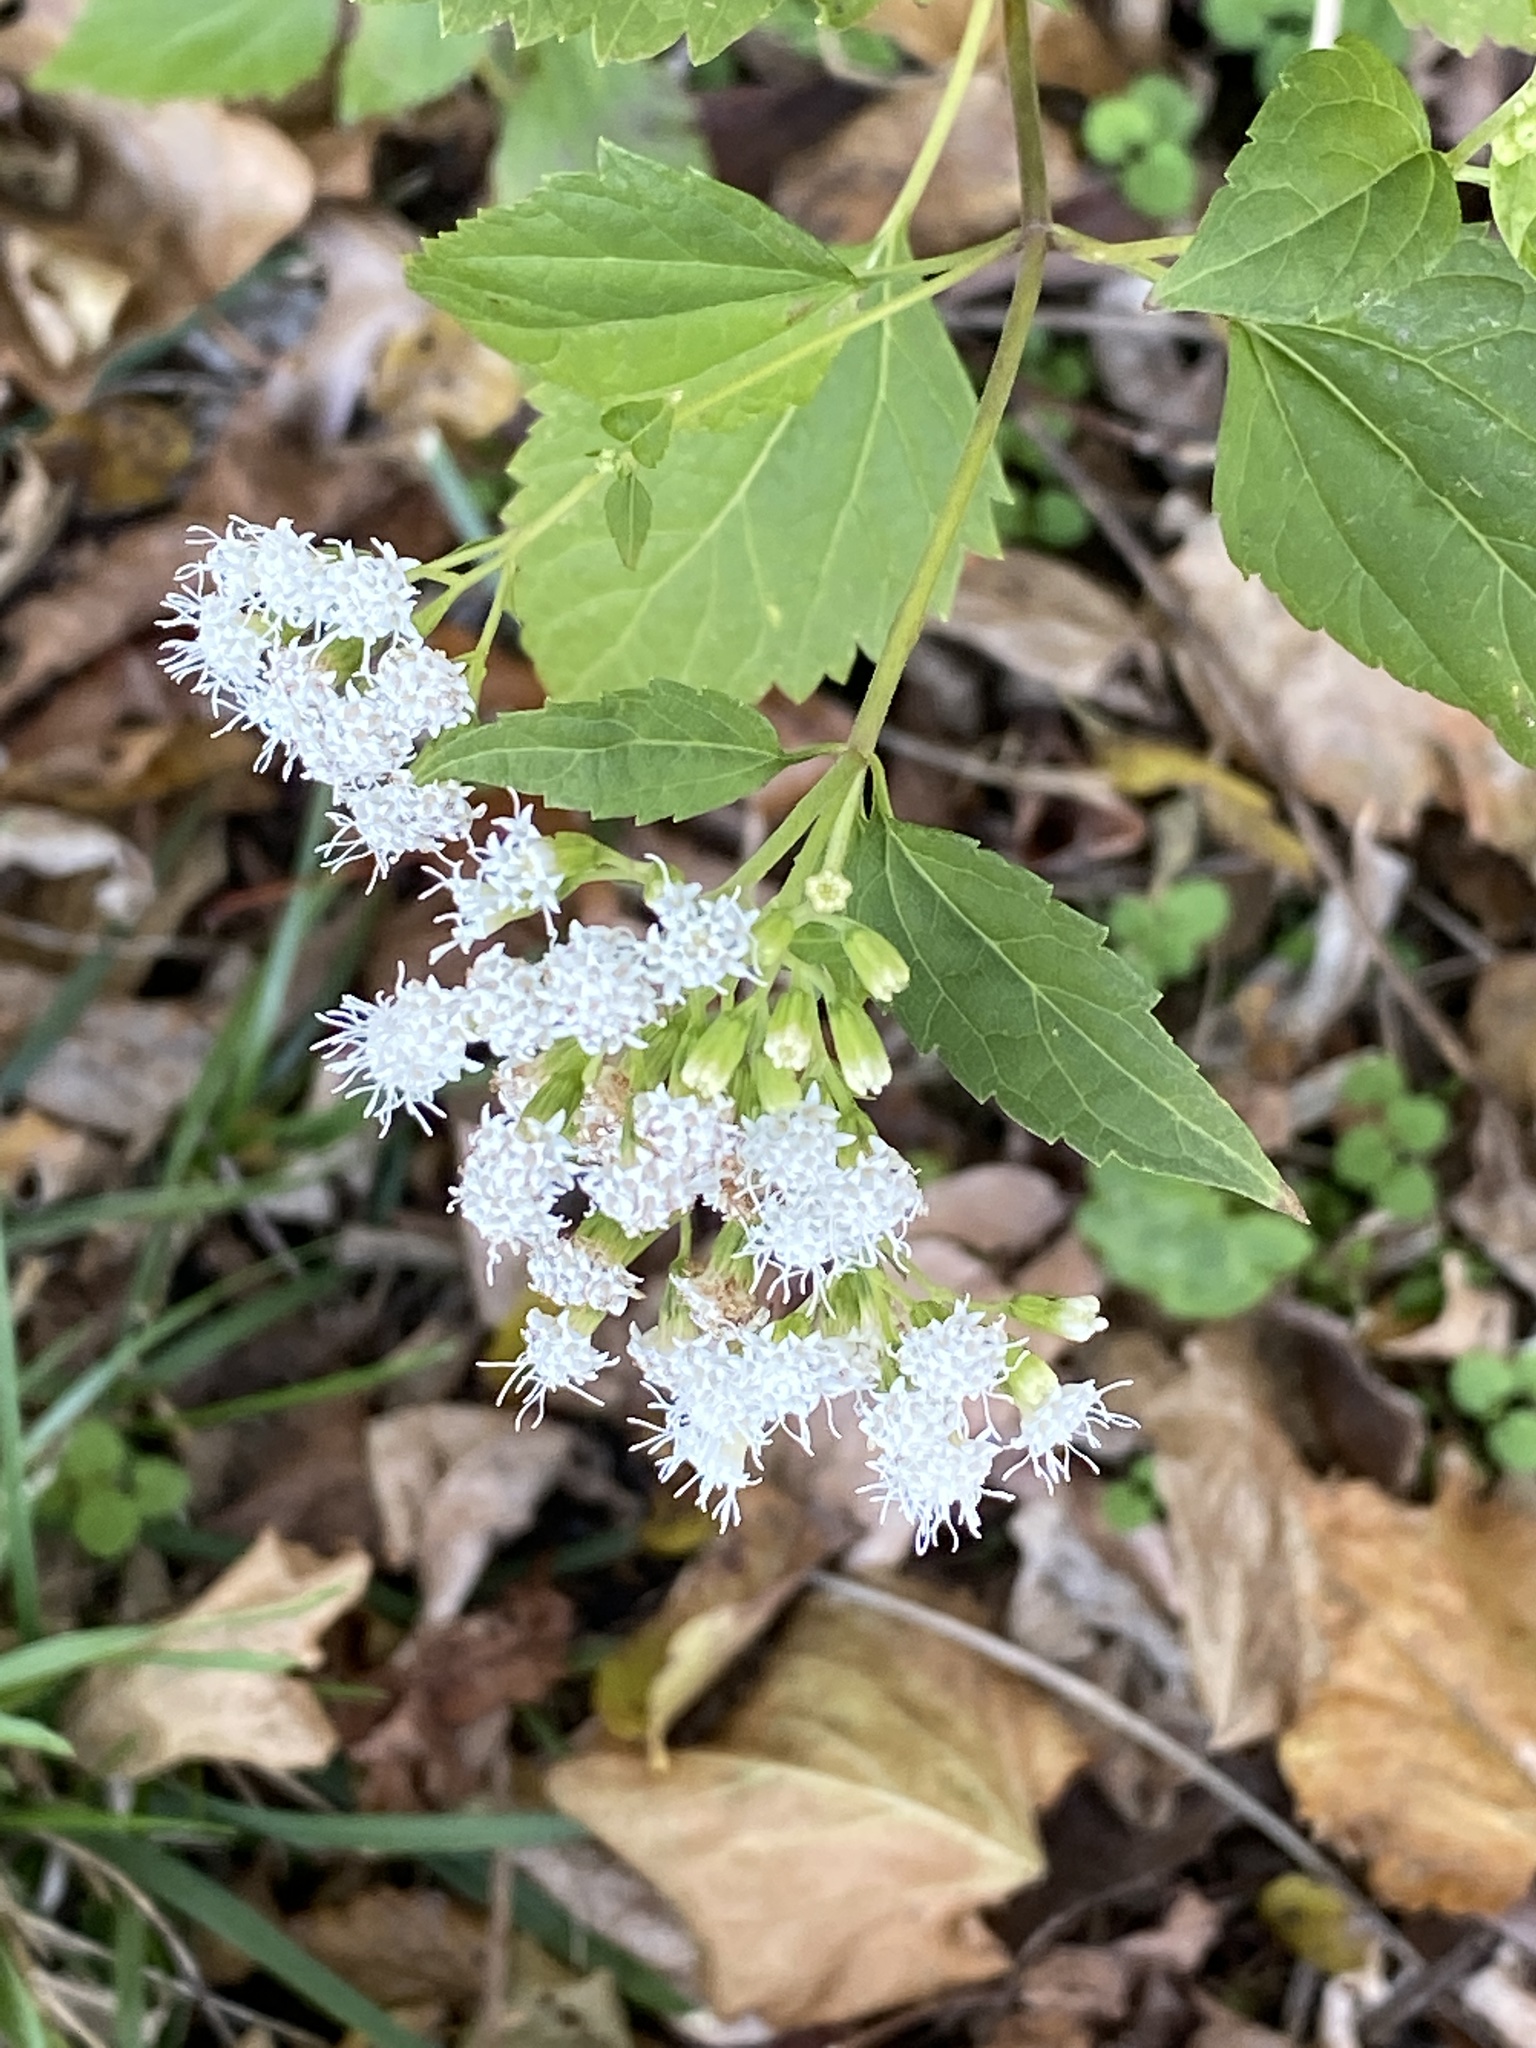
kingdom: Plantae
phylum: Tracheophyta
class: Magnoliopsida
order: Asterales
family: Asteraceae
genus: Ageratina
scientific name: Ageratina altissima
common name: White snakeroot
